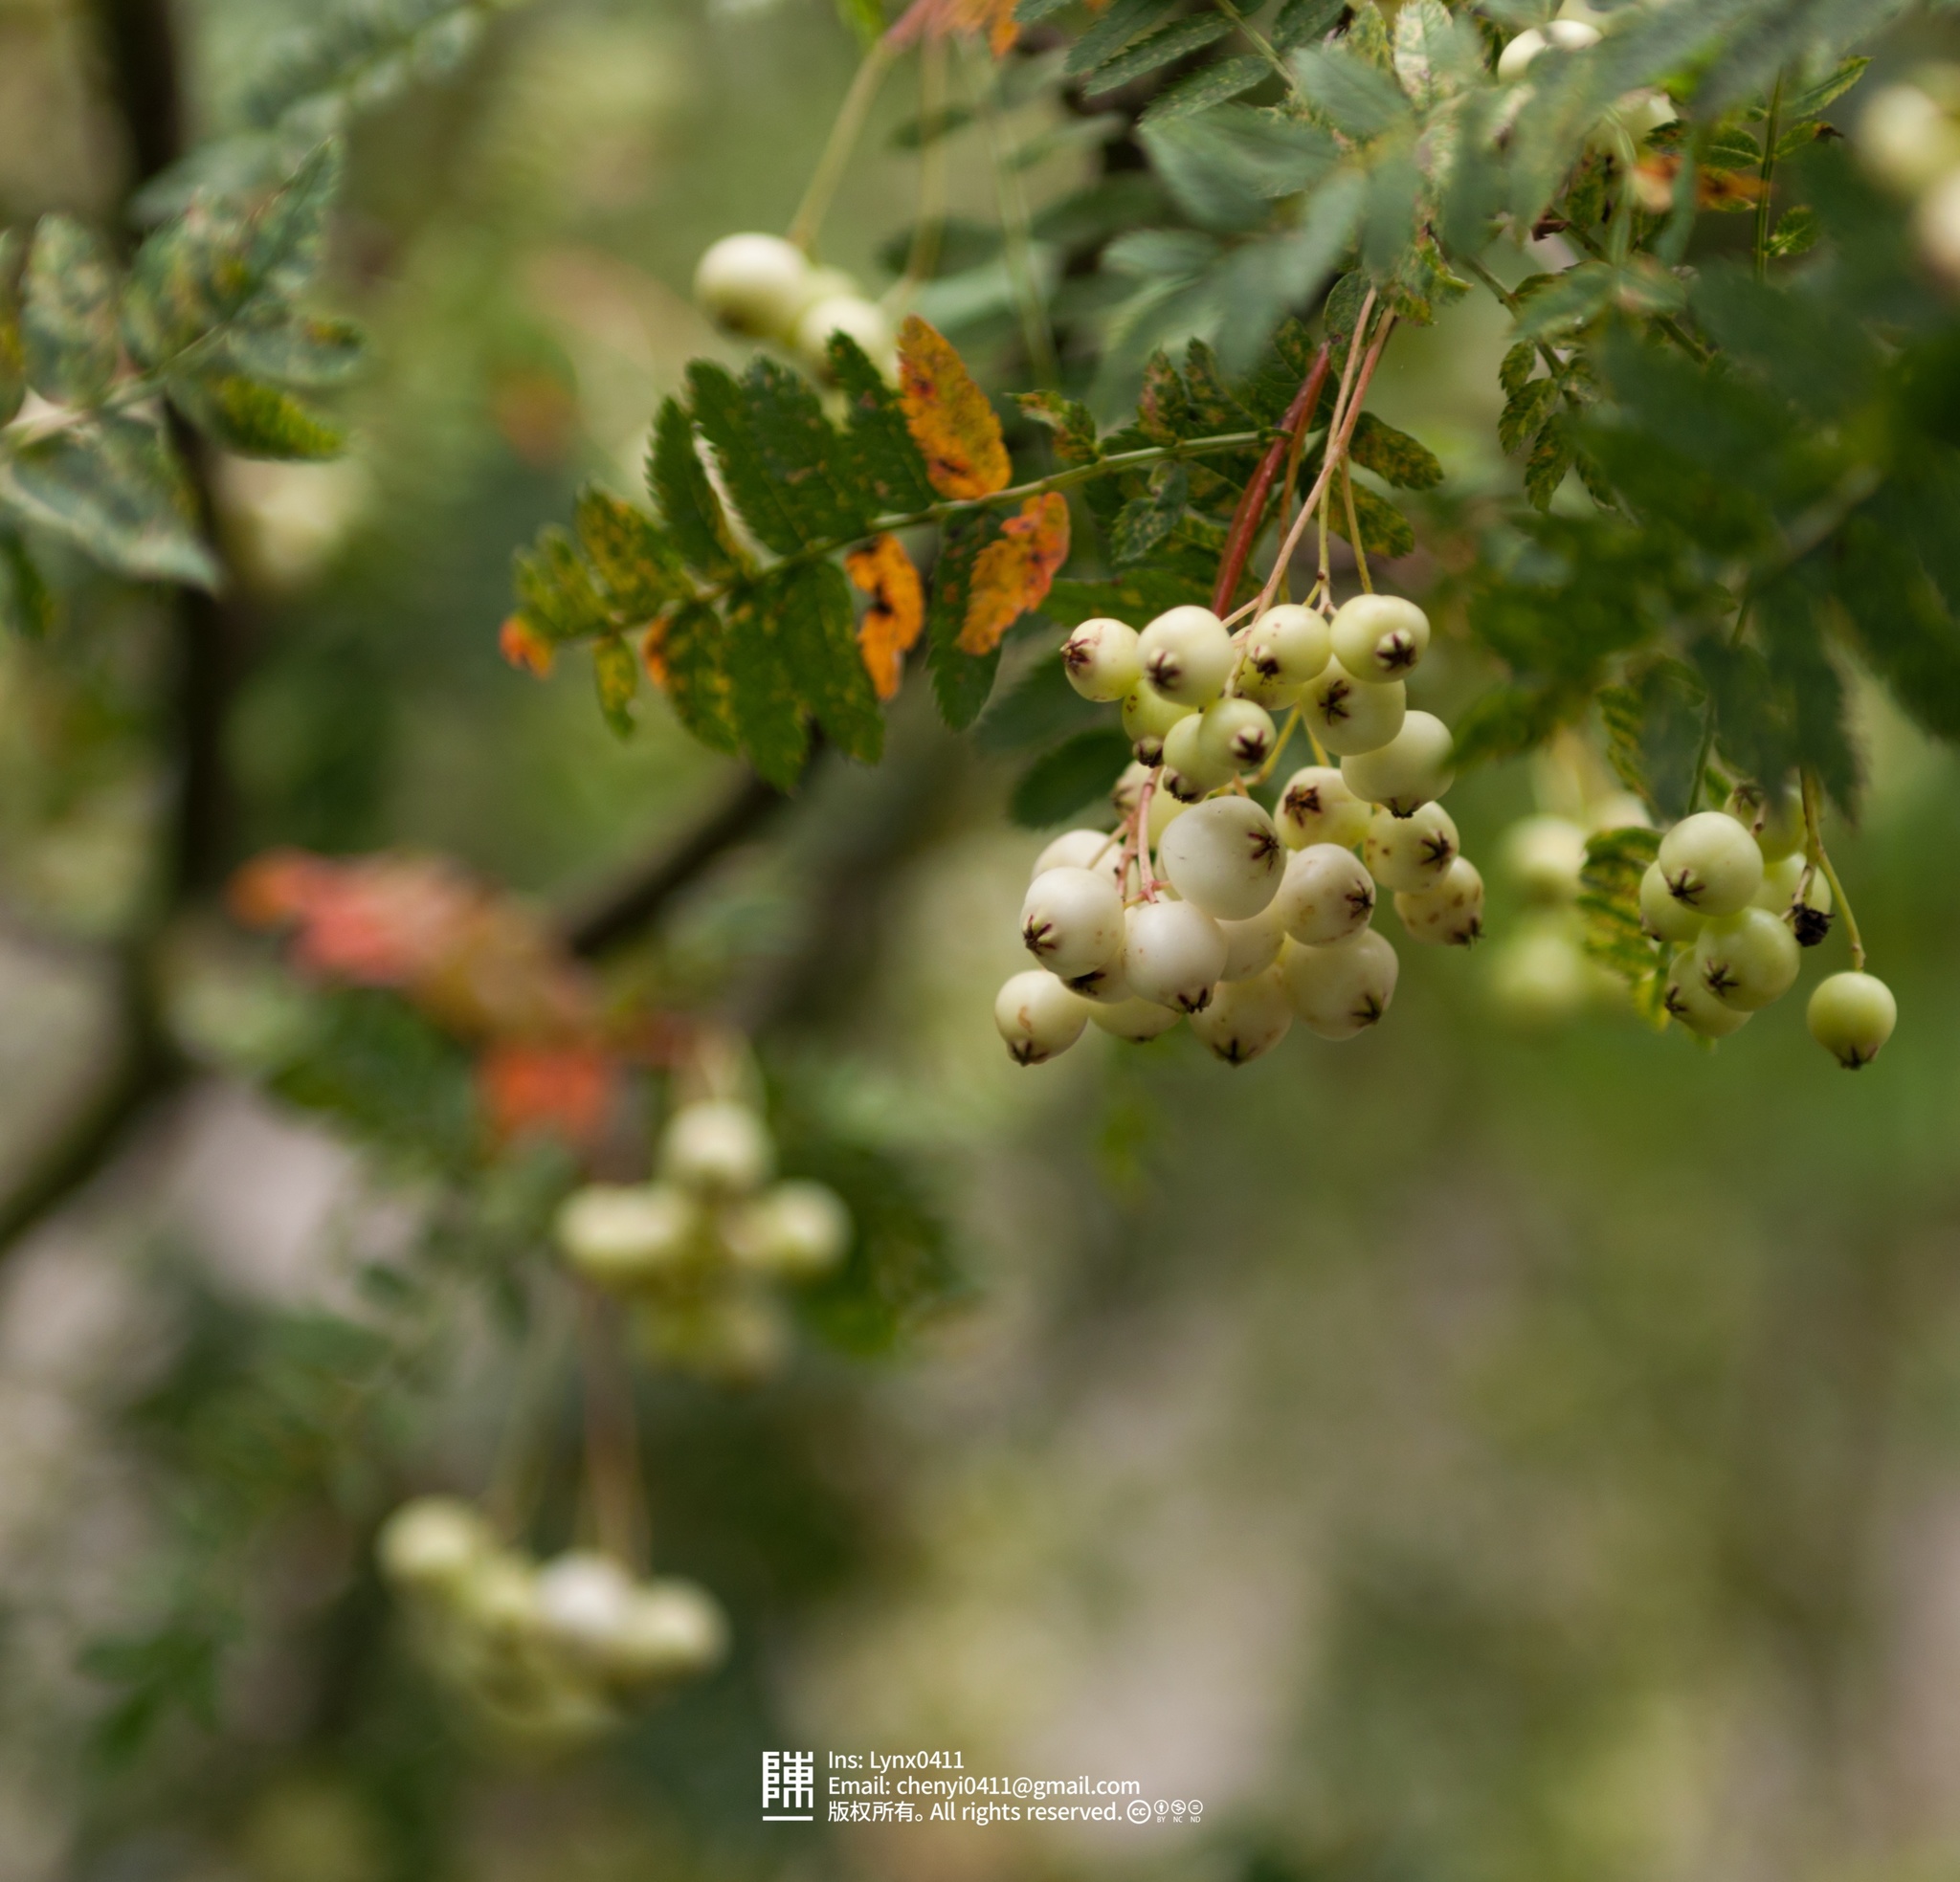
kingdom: Plantae
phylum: Tracheophyta
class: Magnoliopsida
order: Rosales
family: Rosaceae
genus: Sorbus
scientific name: Sorbus aucuparia
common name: Rowan
